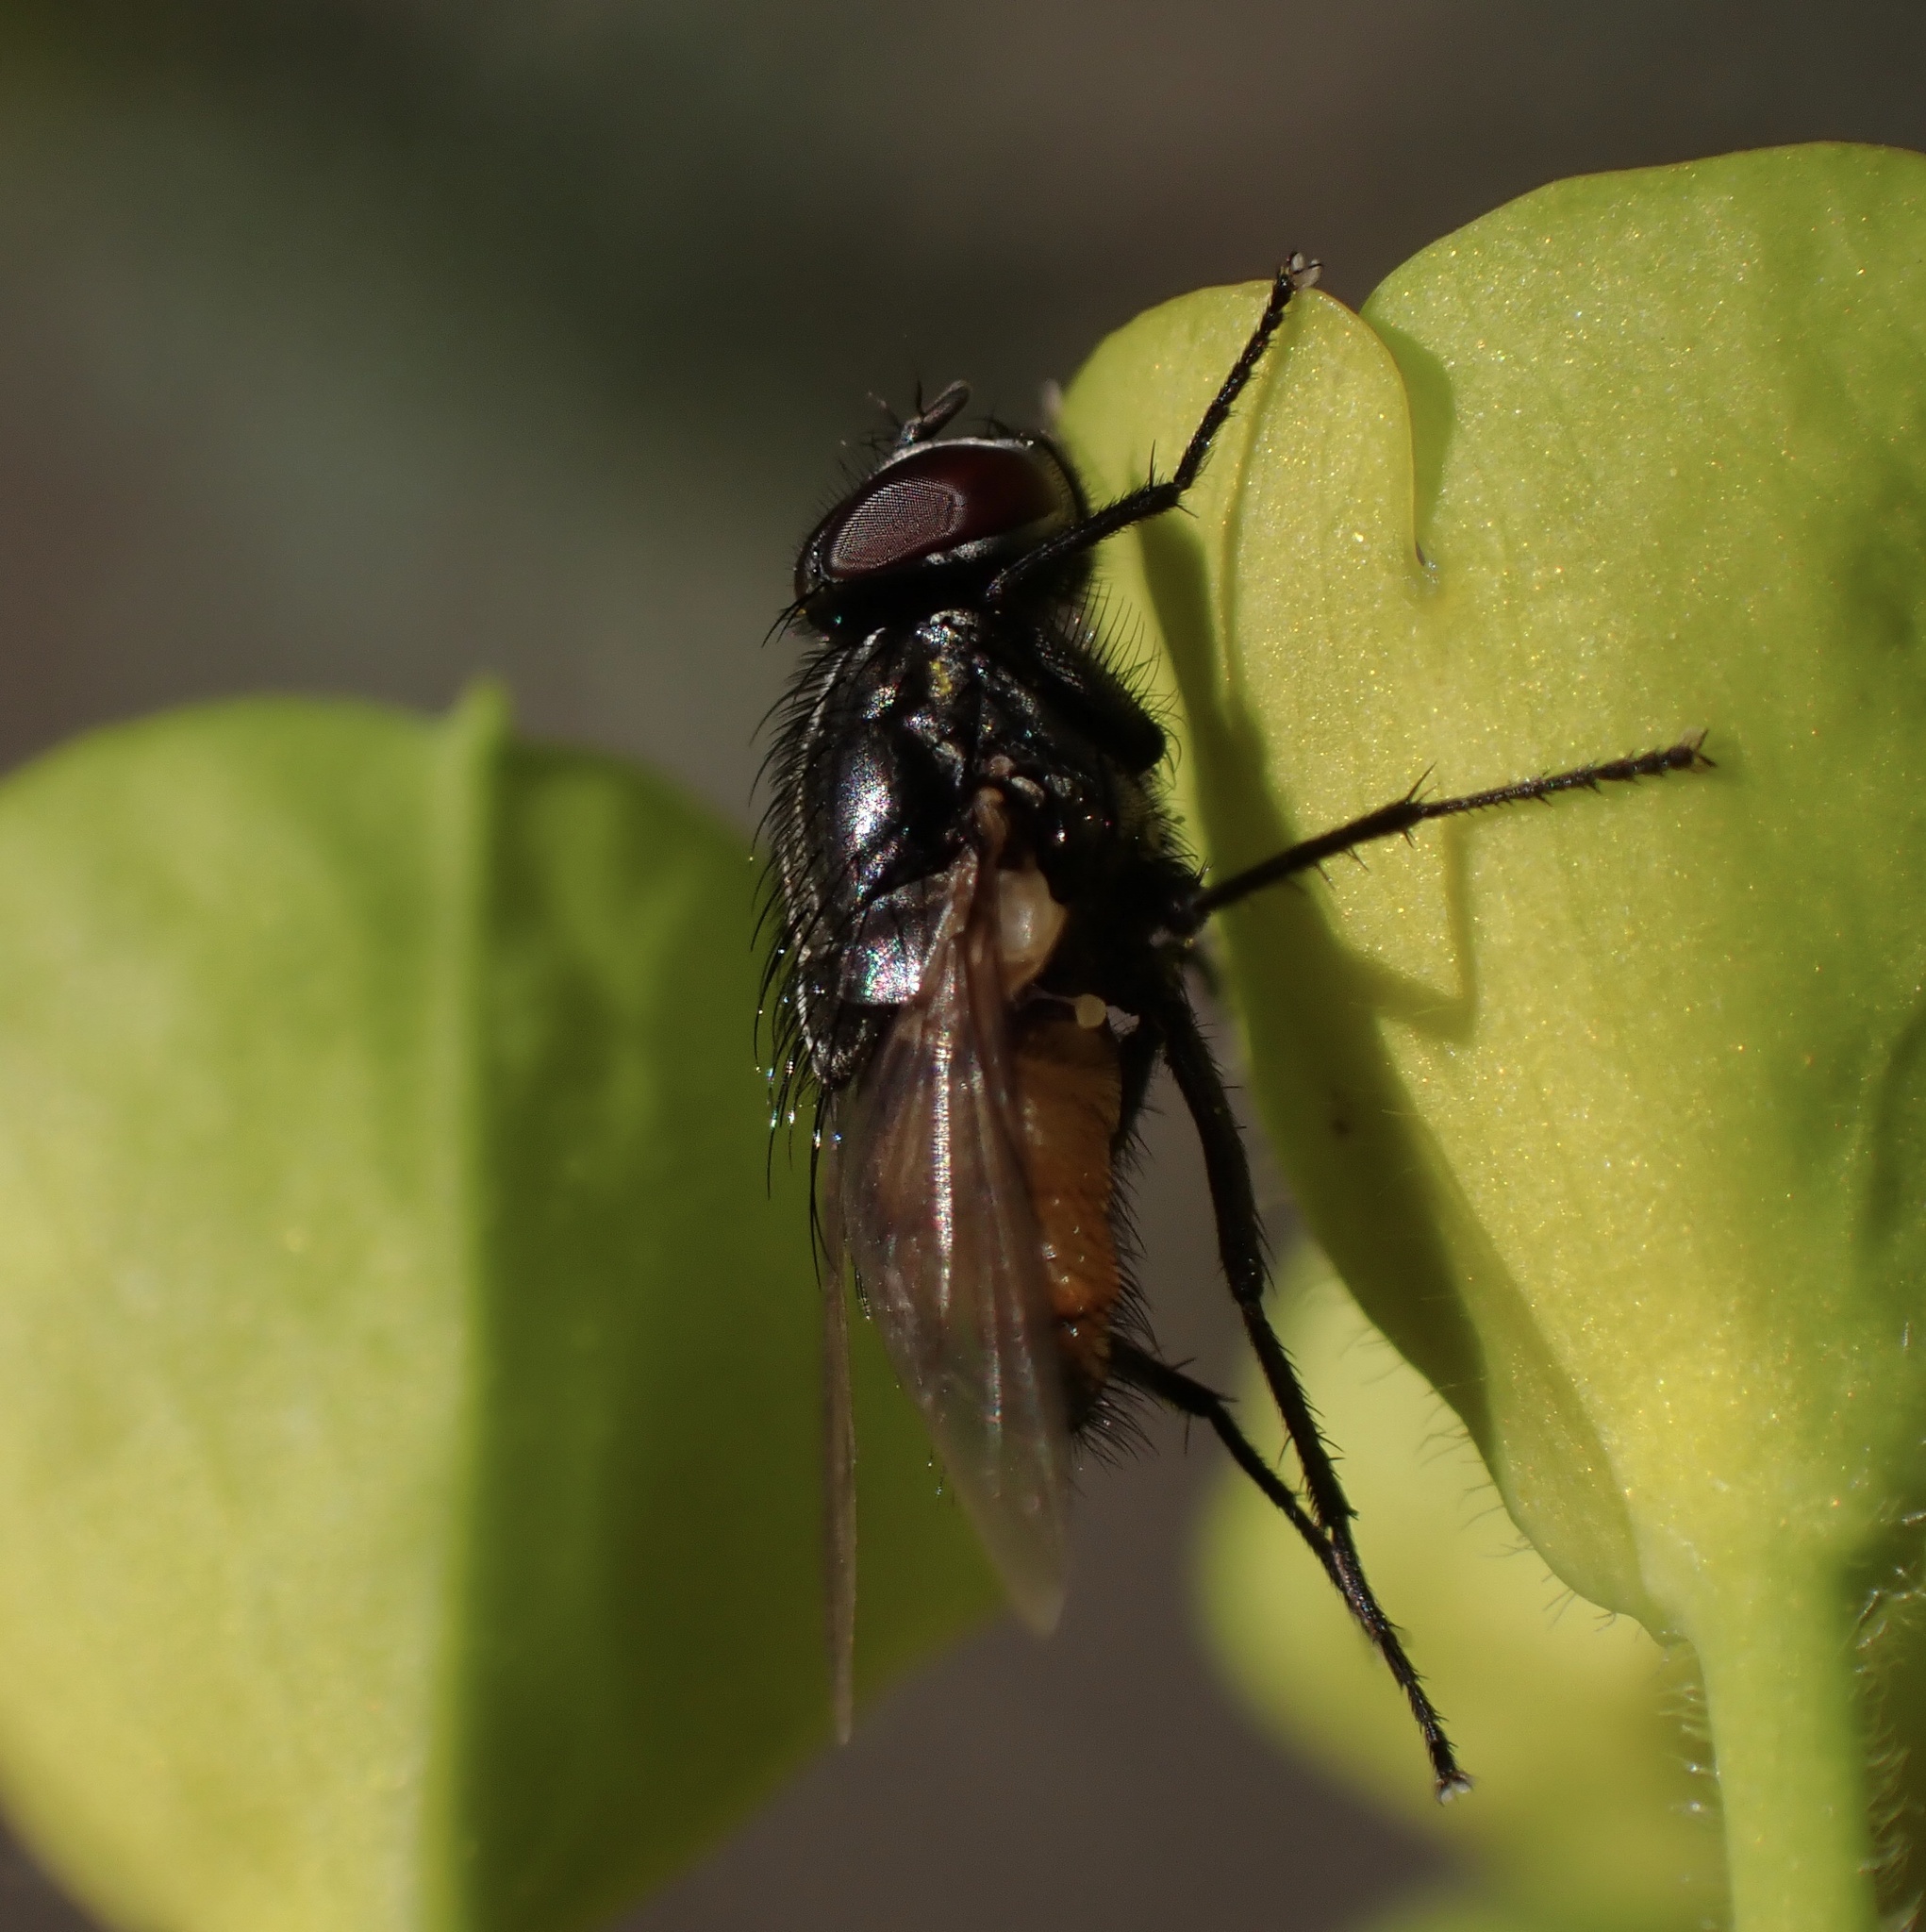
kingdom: Animalia
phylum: Arthropoda
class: Insecta
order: Diptera
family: Muscidae
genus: Musca
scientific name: Musca autumnalis
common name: Face fly
